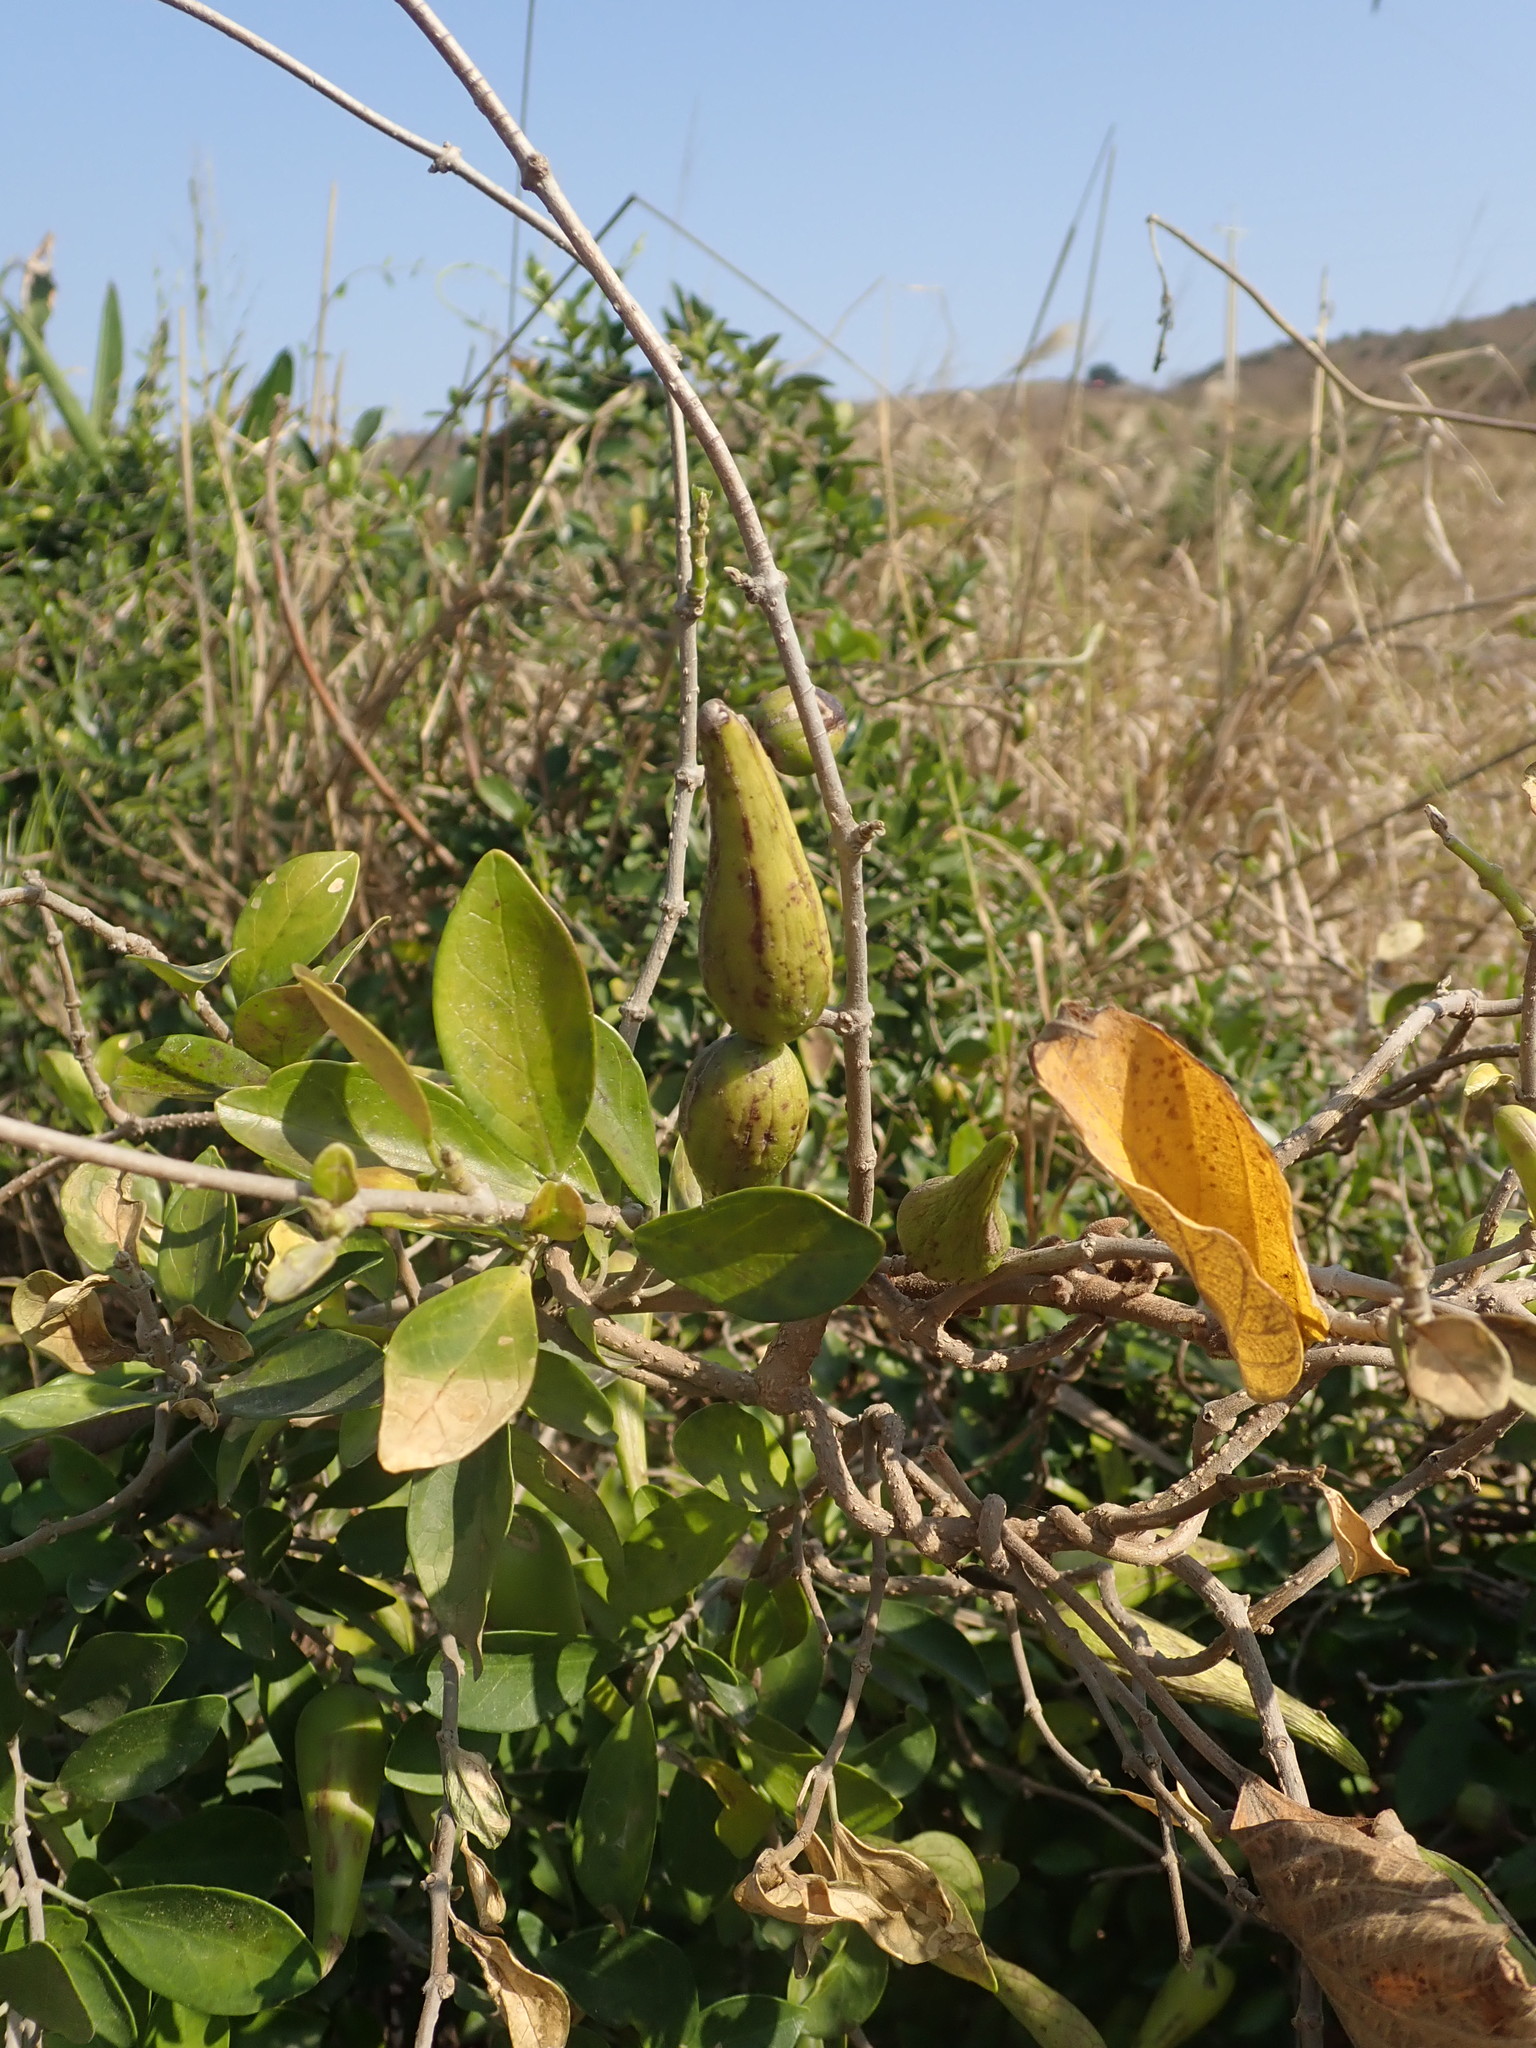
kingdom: Plantae
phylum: Tracheophyta
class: Magnoliopsida
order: Gentianales
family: Apocynaceae
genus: Gymnema
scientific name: Gymnema sylvestre
